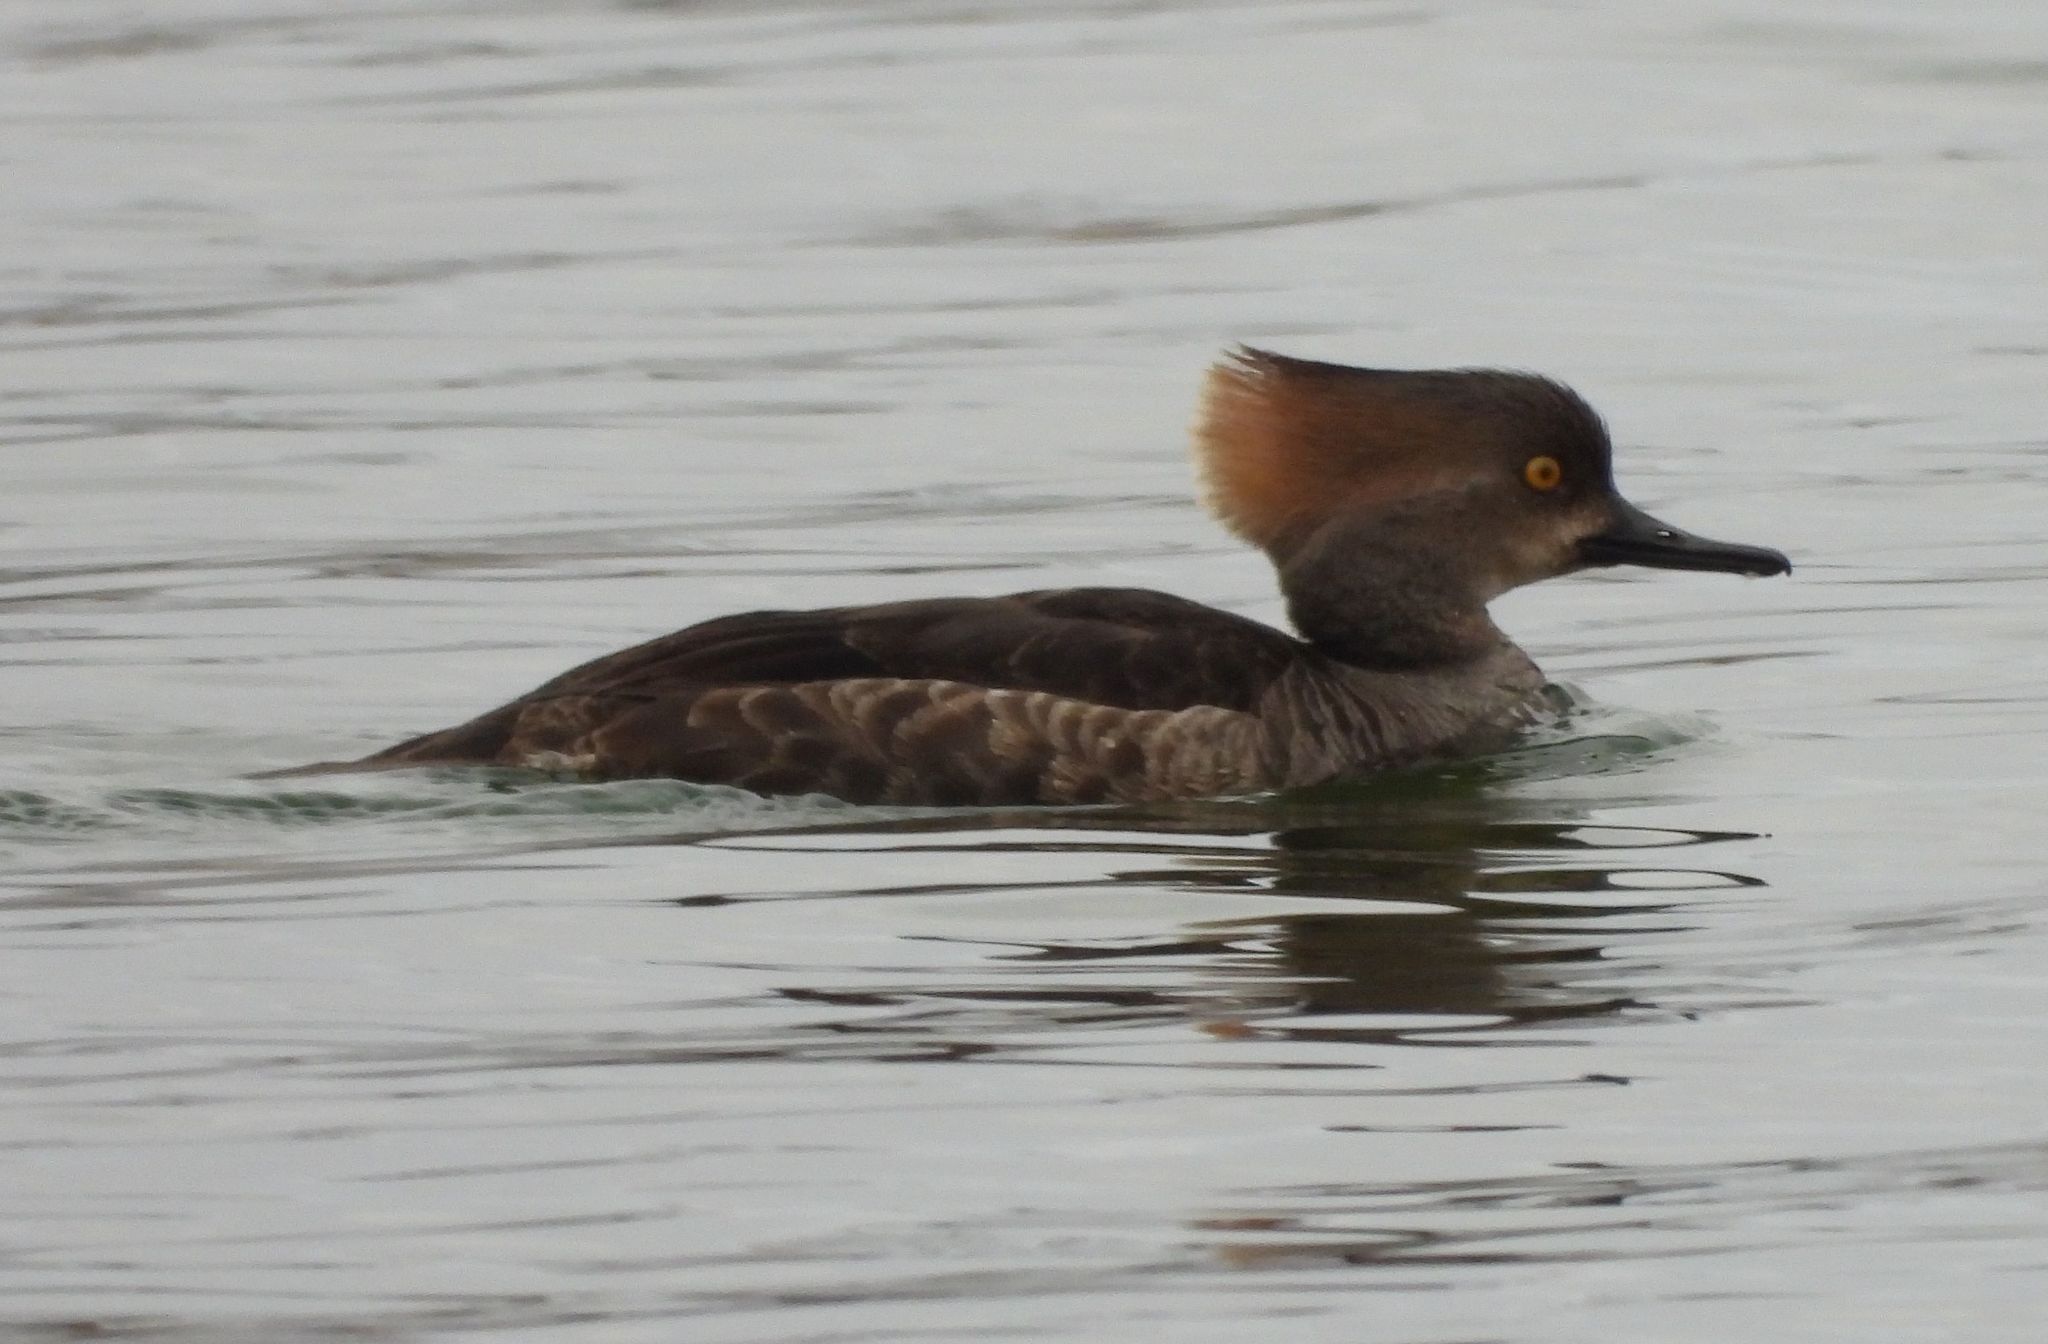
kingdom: Animalia
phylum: Chordata
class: Aves
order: Anseriformes
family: Anatidae
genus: Lophodytes
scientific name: Lophodytes cucullatus
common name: Hooded merganser
